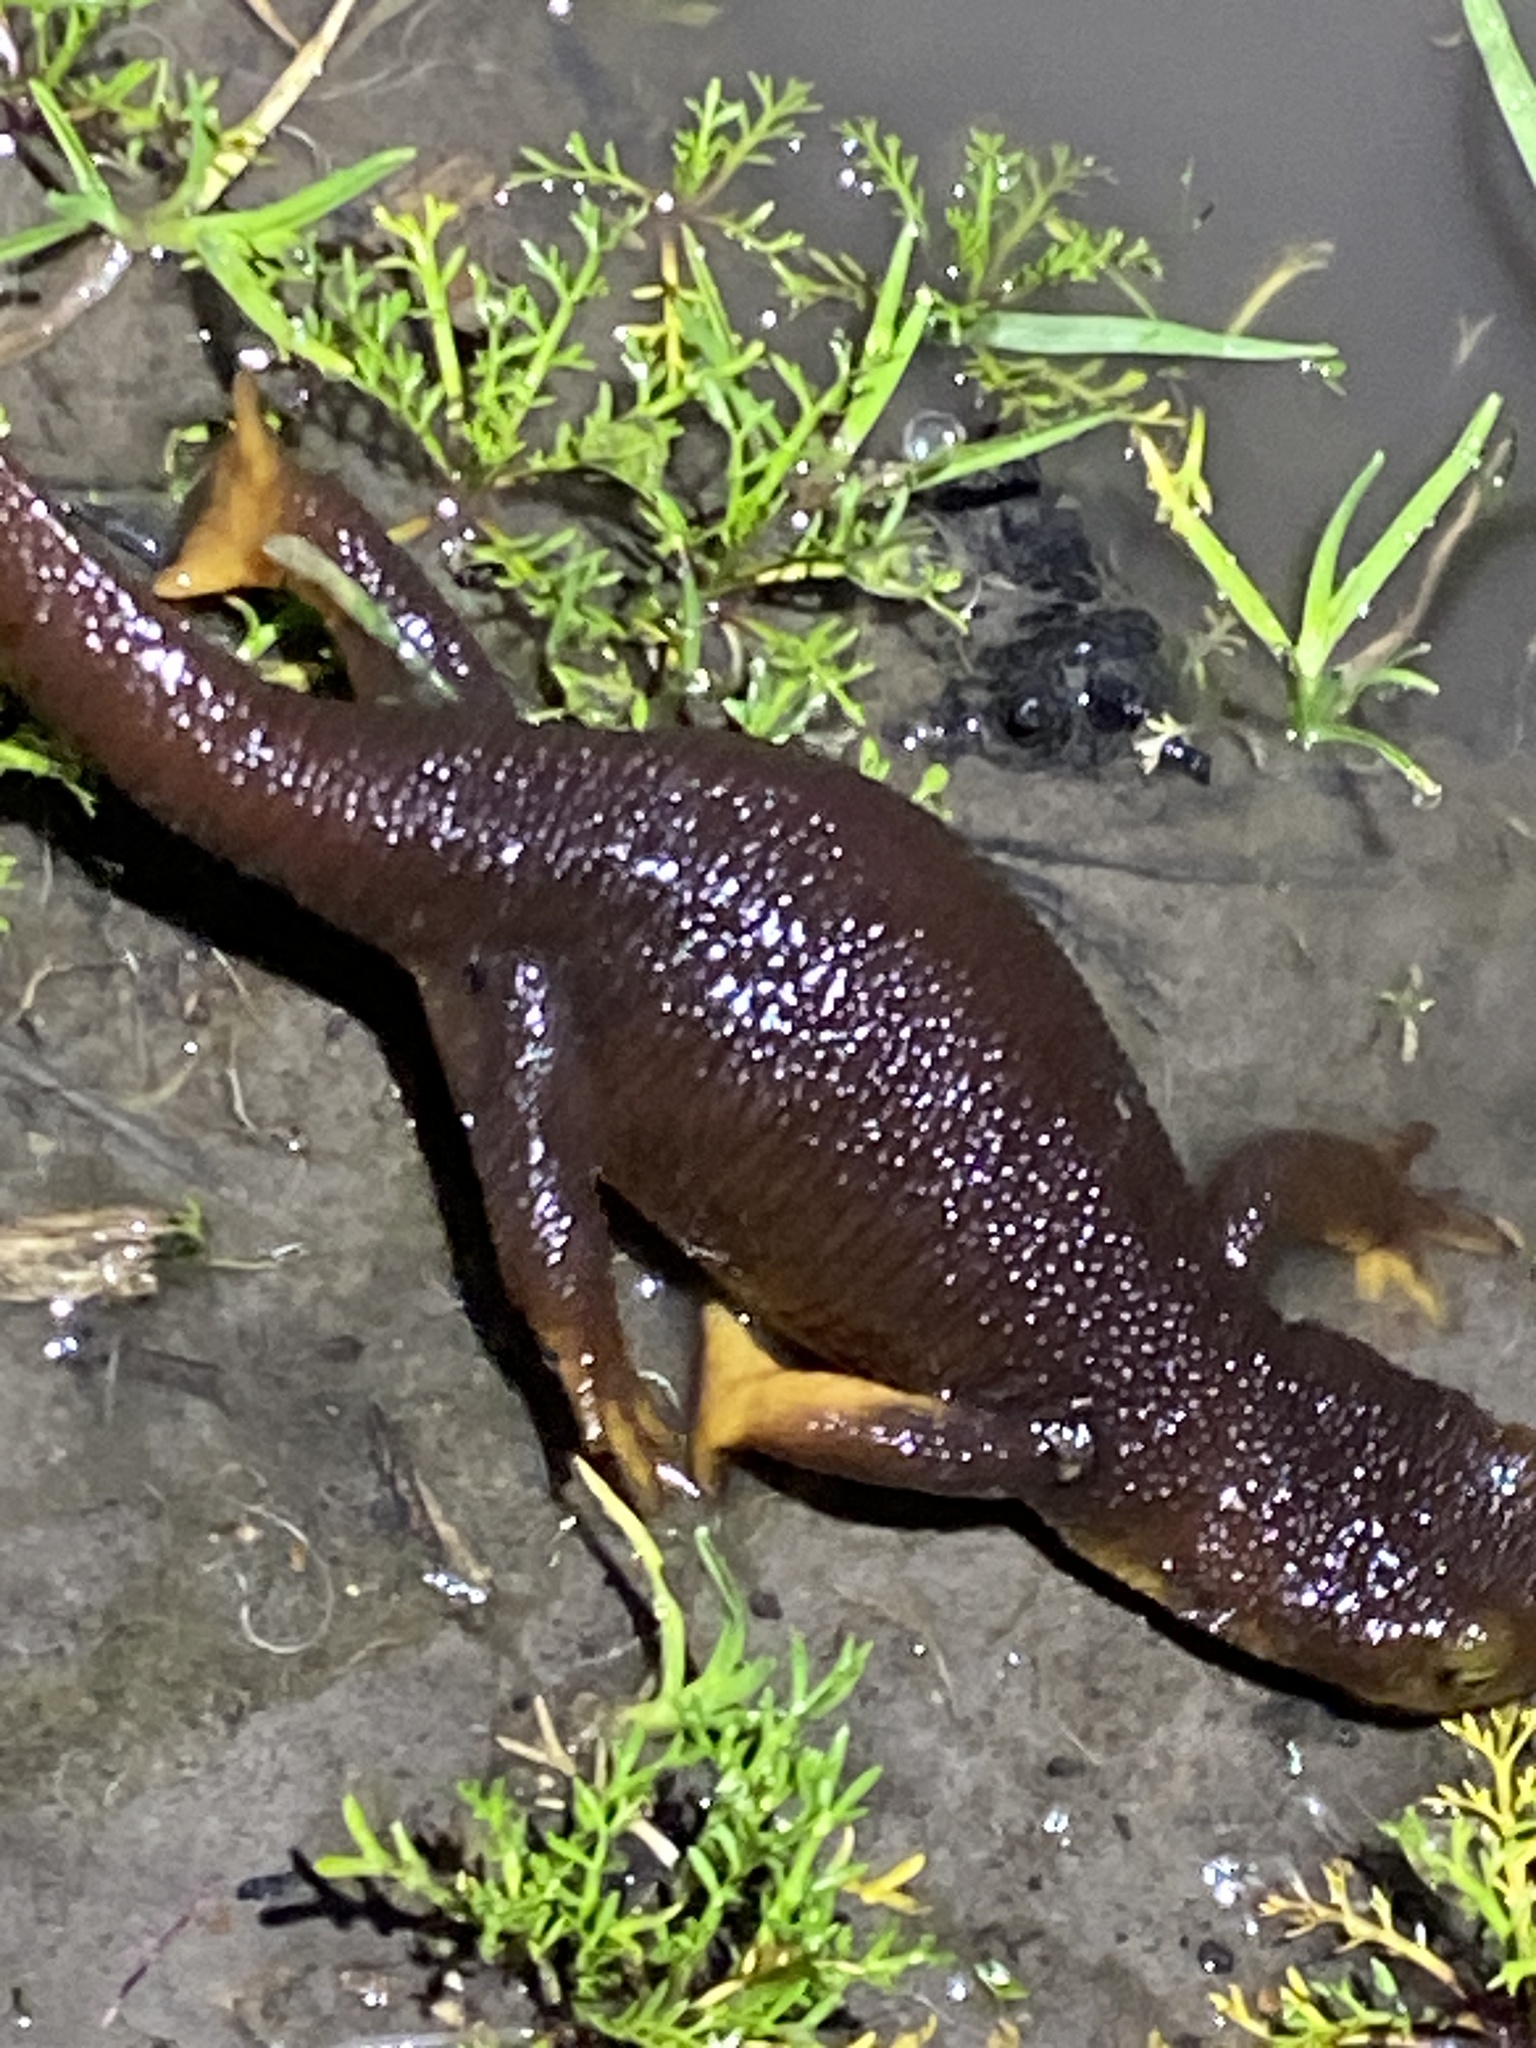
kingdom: Animalia
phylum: Chordata
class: Amphibia
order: Caudata
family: Salamandridae
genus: Taricha
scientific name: Taricha torosa
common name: California newt
